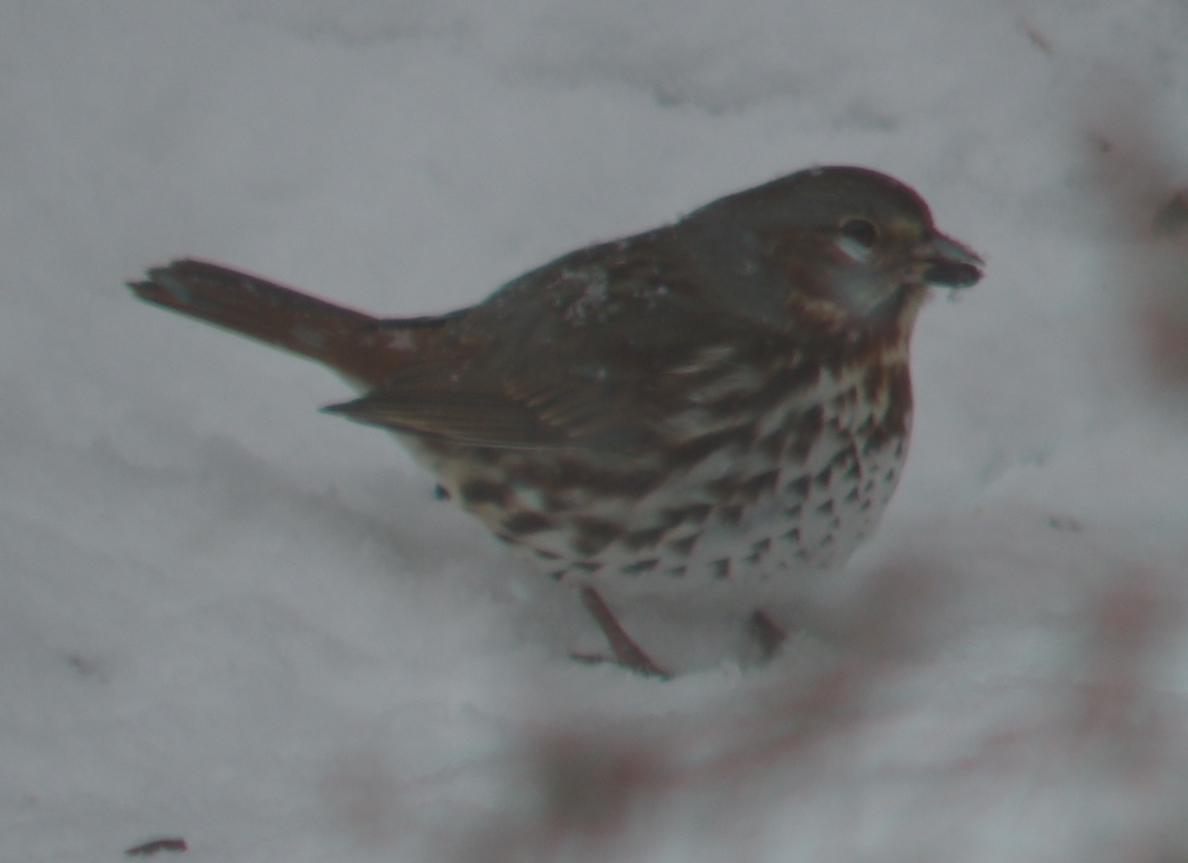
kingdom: Animalia
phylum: Chordata
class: Aves
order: Passeriformes
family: Passerellidae
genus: Passerella
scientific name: Passerella iliaca
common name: Fox sparrow
